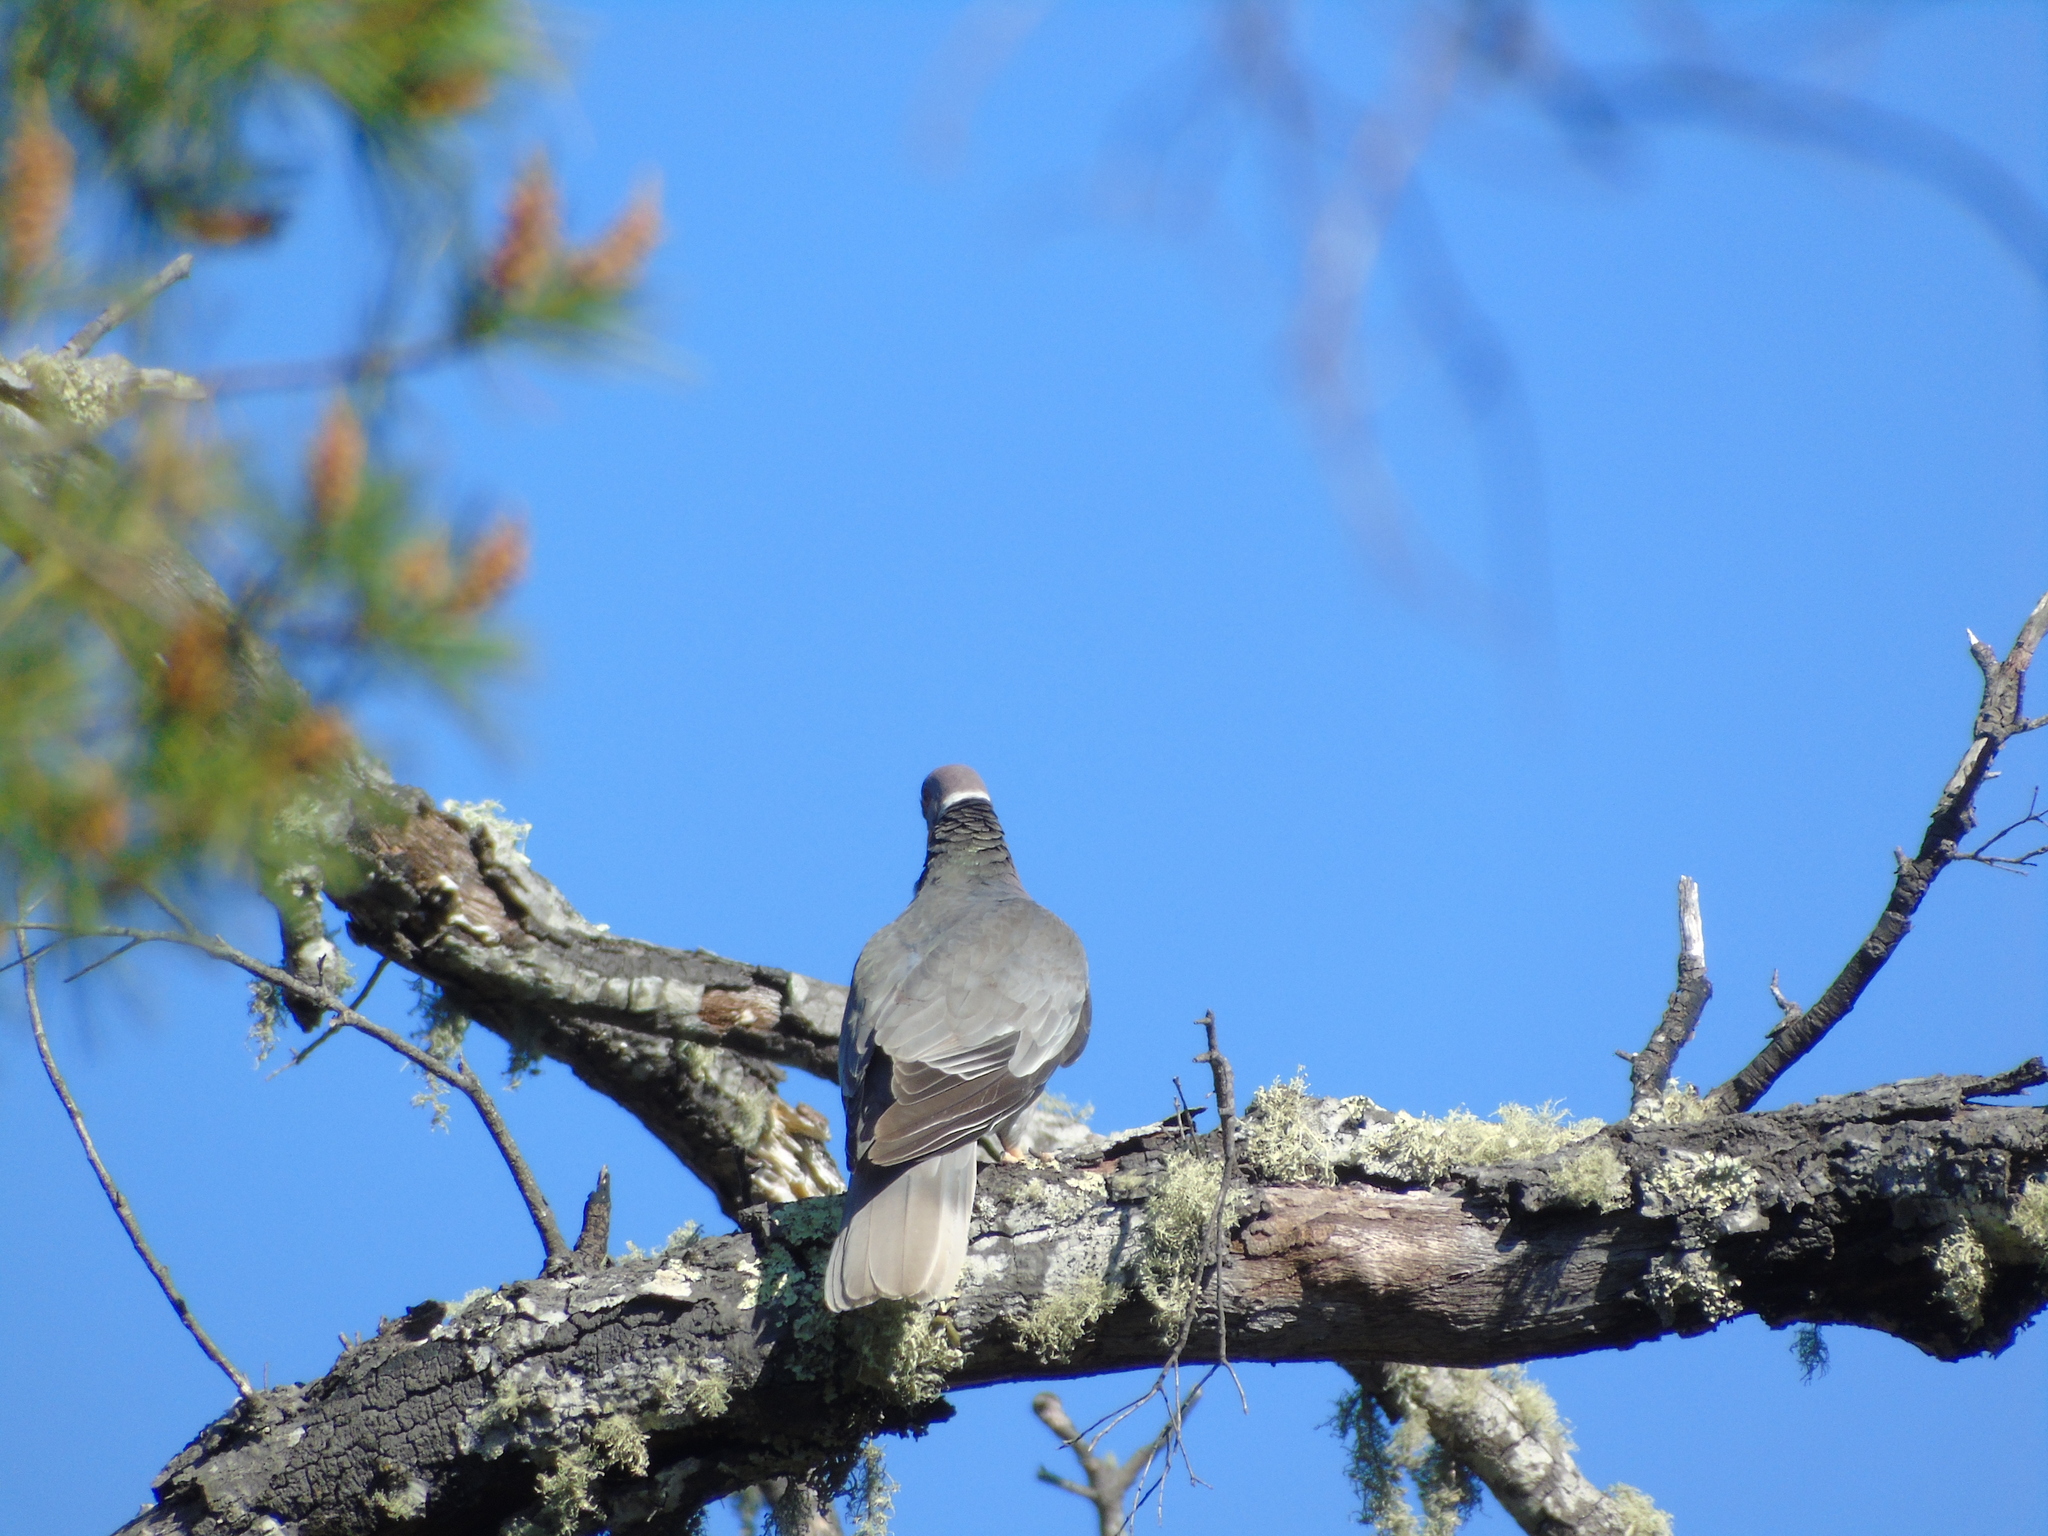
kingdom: Animalia
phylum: Chordata
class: Aves
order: Columbiformes
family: Columbidae
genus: Patagioenas
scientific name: Patagioenas fasciata
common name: Band-tailed pigeon
